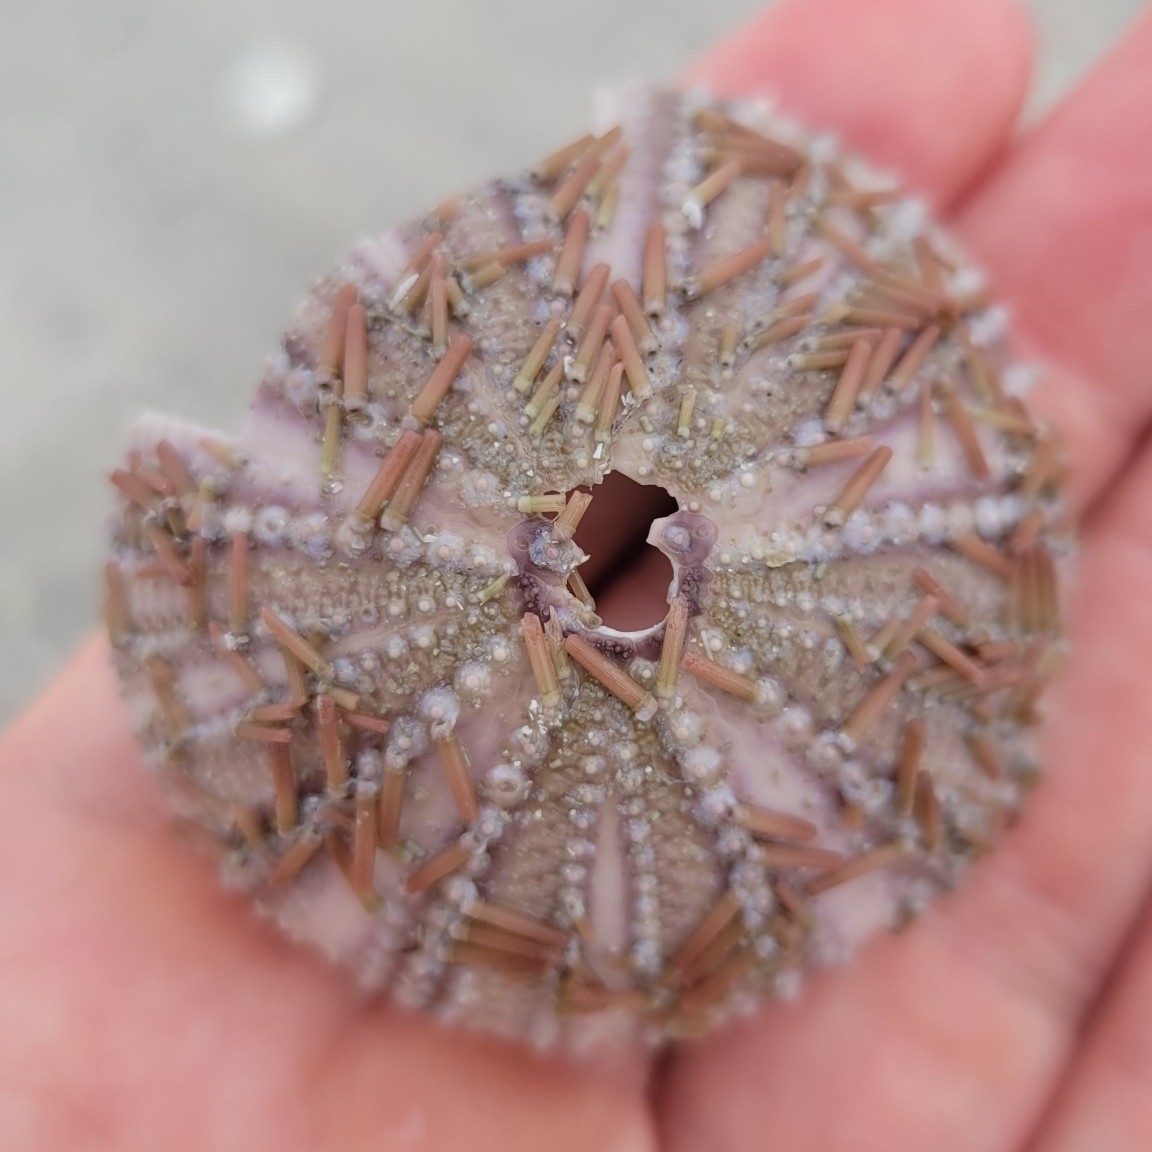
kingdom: Animalia
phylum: Echinodermata
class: Echinoidea
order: Camarodonta
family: Toxopneustidae
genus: Lytechinus
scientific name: Lytechinus variegatus
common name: Variegated urchin
